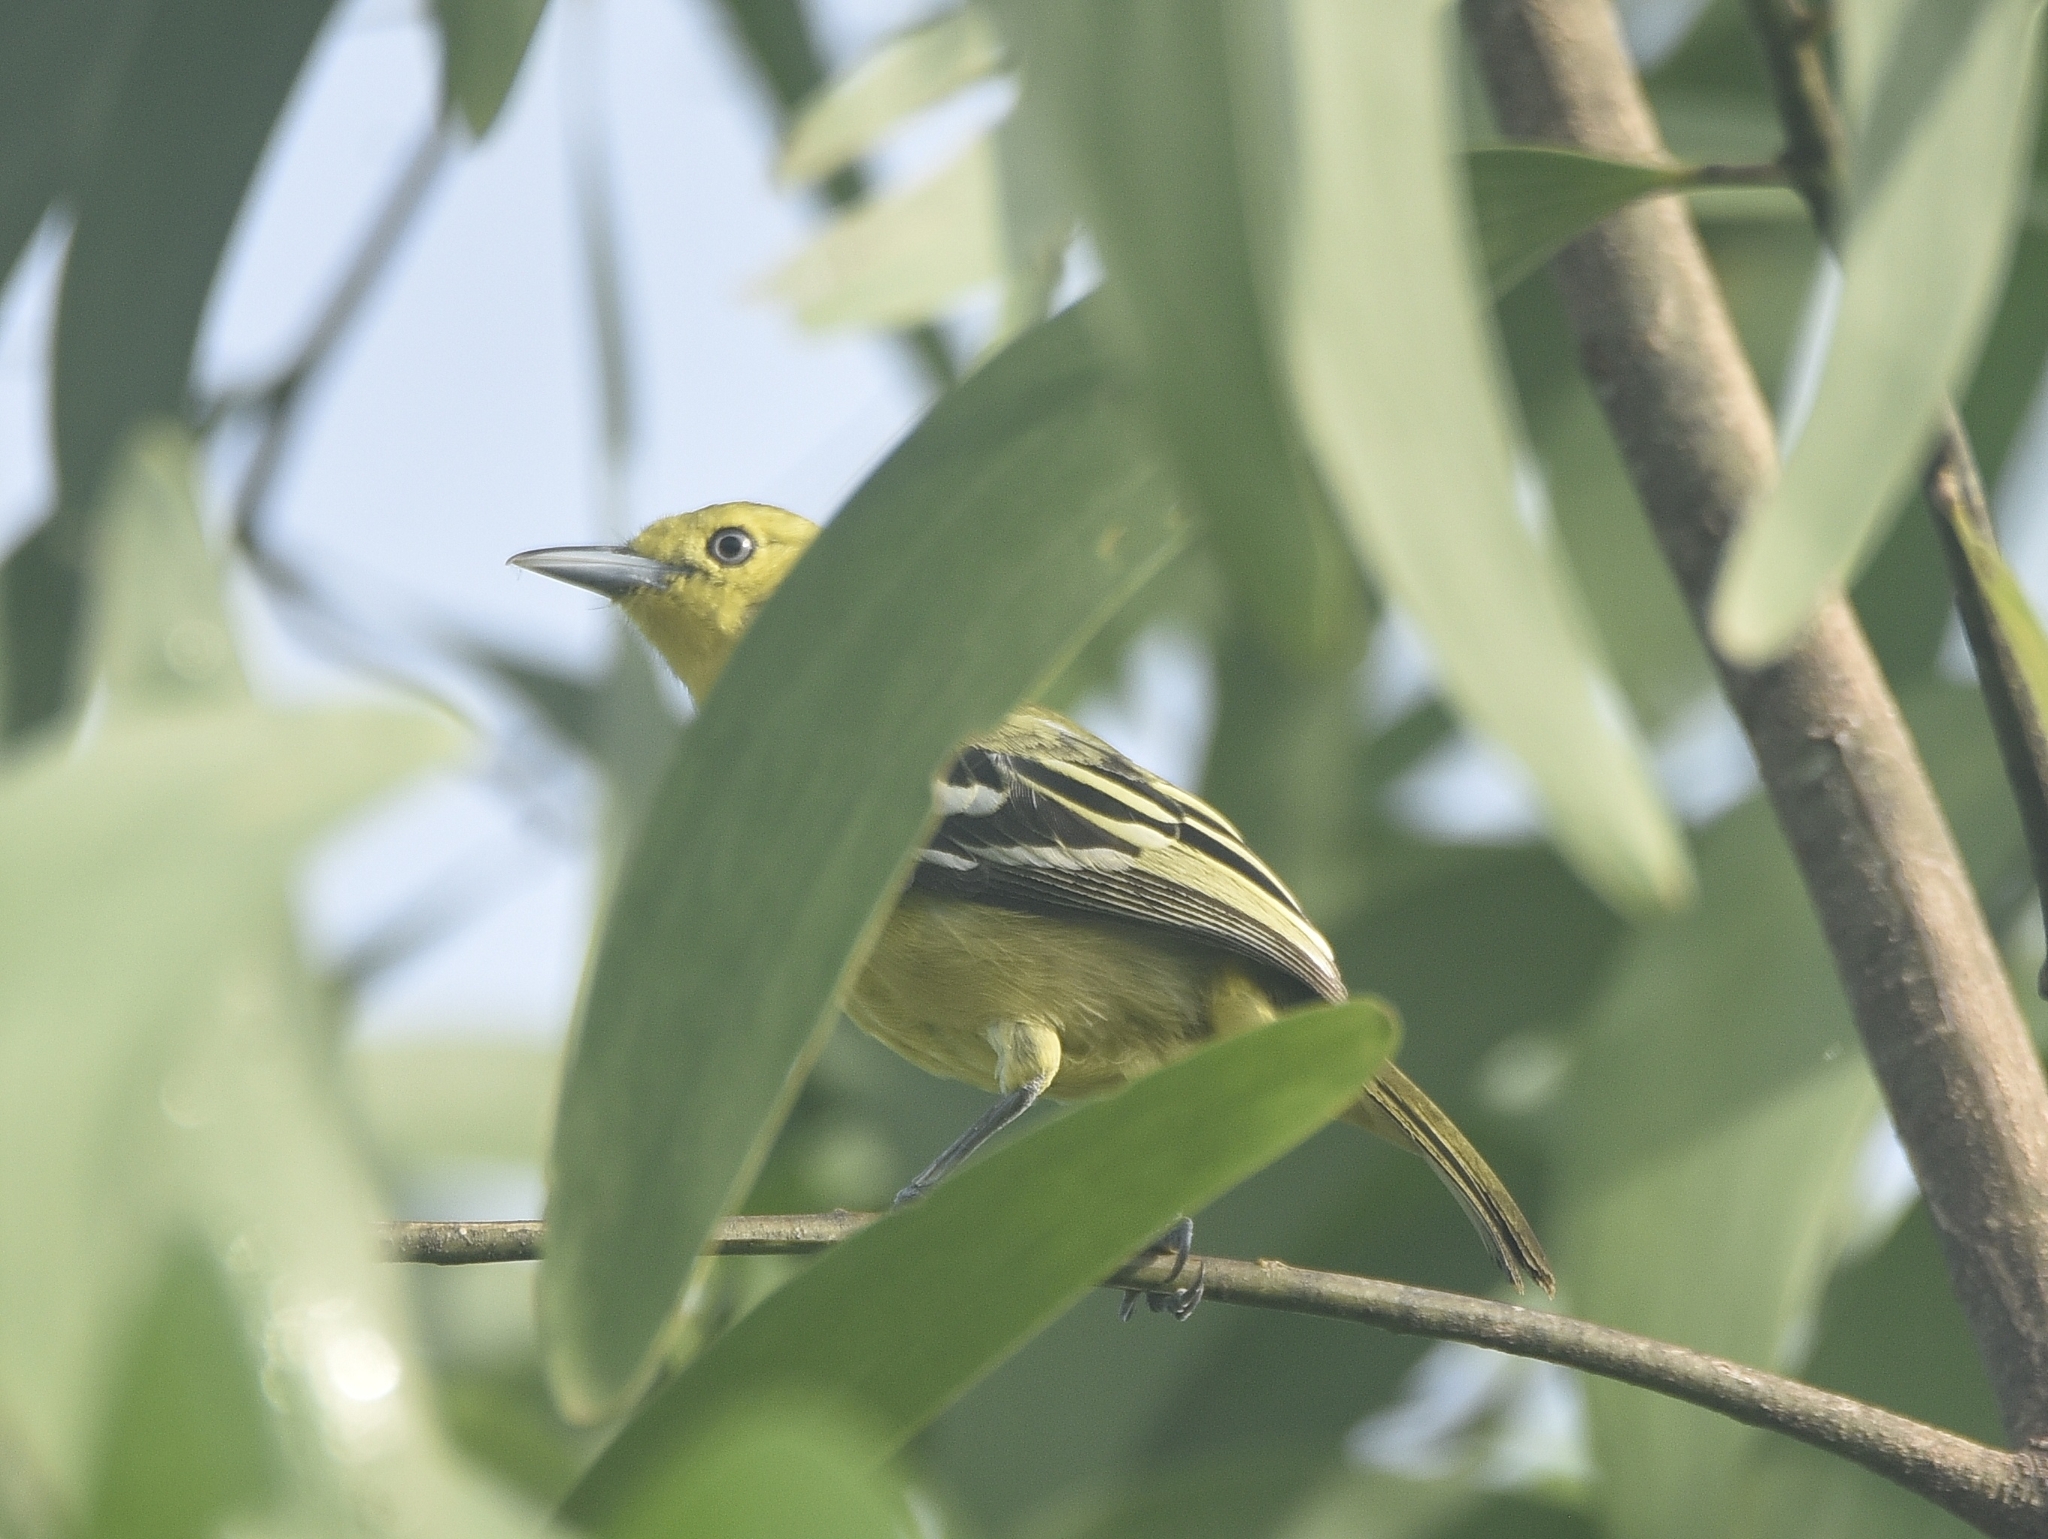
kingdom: Animalia
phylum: Chordata
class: Aves
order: Passeriformes
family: Aegithinidae
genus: Aegithina
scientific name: Aegithina tiphia
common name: Common iora
